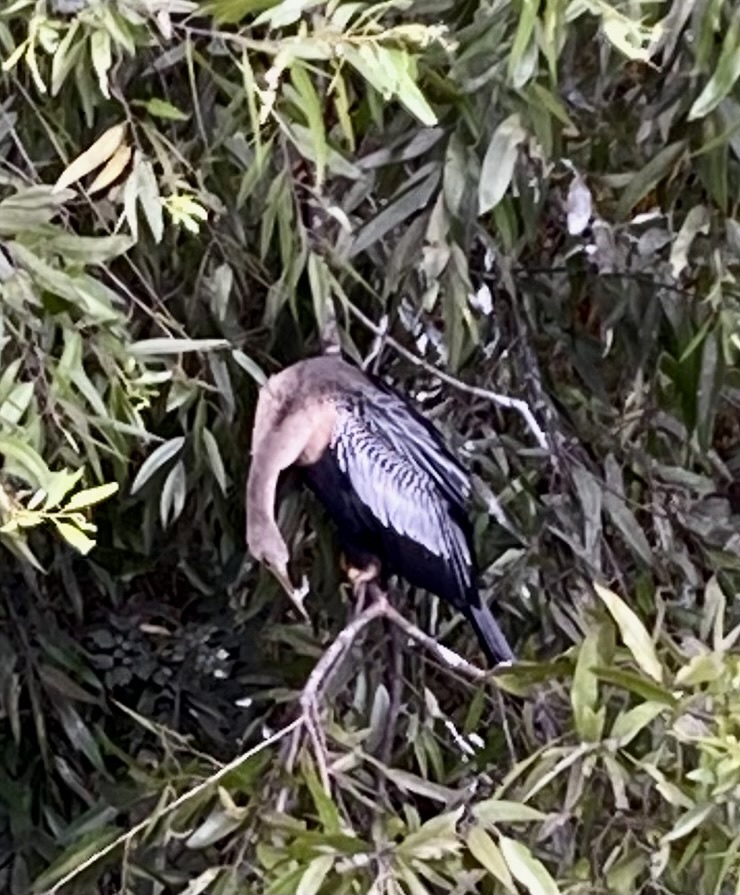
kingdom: Animalia
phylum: Chordata
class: Aves
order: Suliformes
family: Anhingidae
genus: Anhinga
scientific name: Anhinga anhinga
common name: Anhinga
